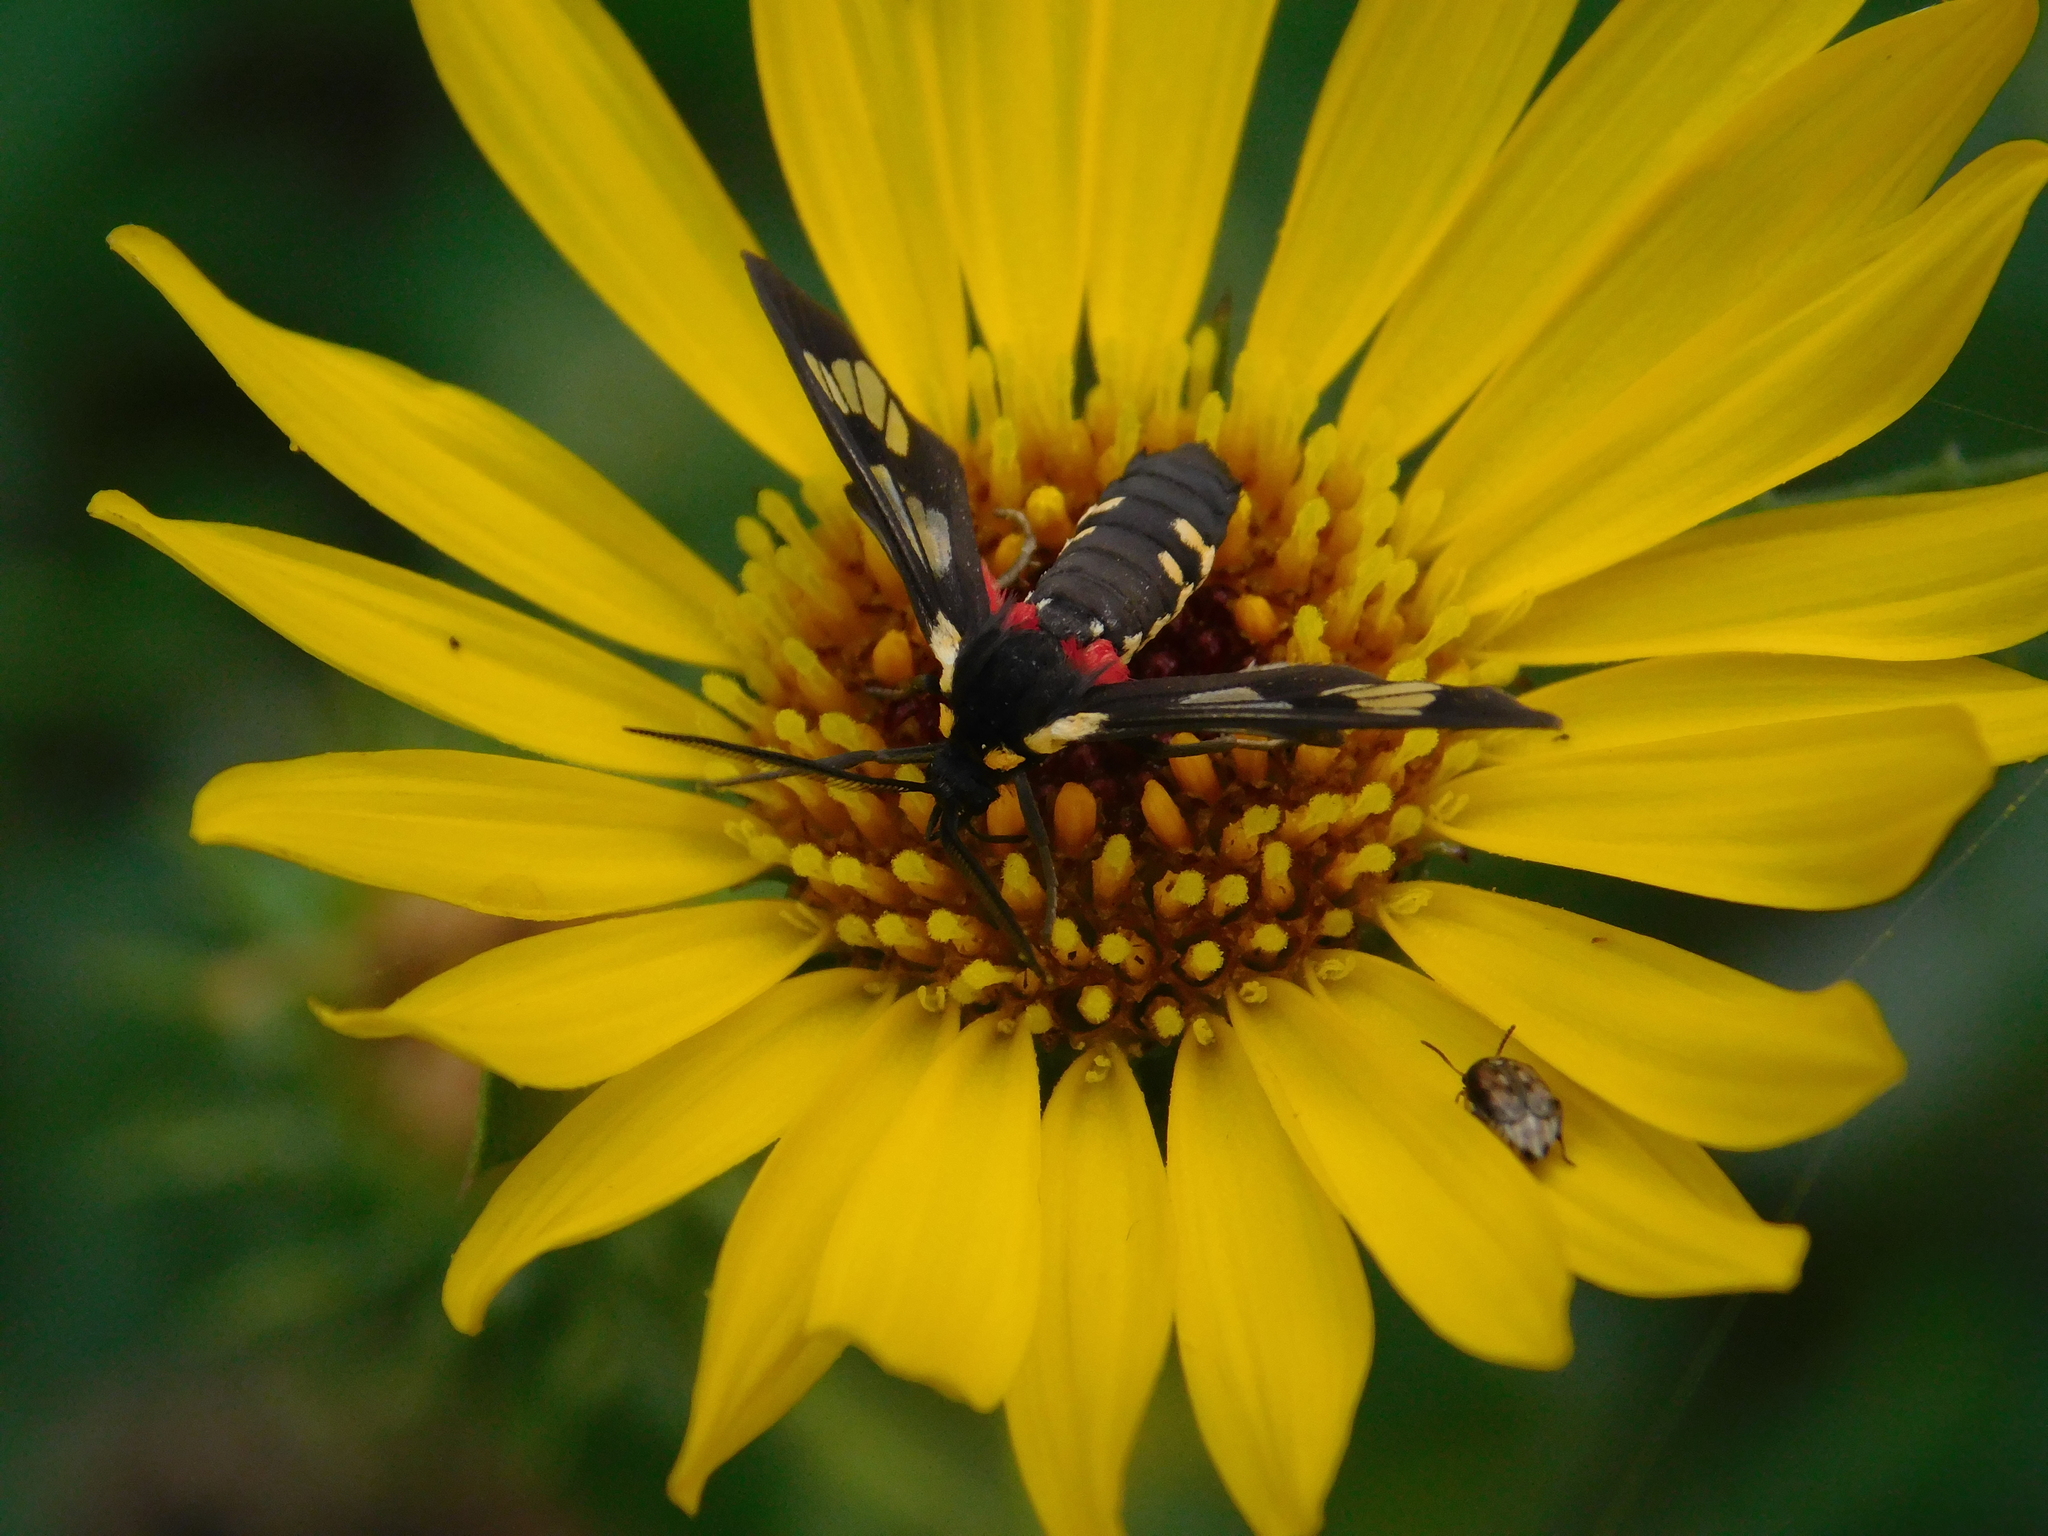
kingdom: Animalia
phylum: Arthropoda
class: Insecta
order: Lepidoptera
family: Erebidae
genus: Eurata
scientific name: Eurata hermione
